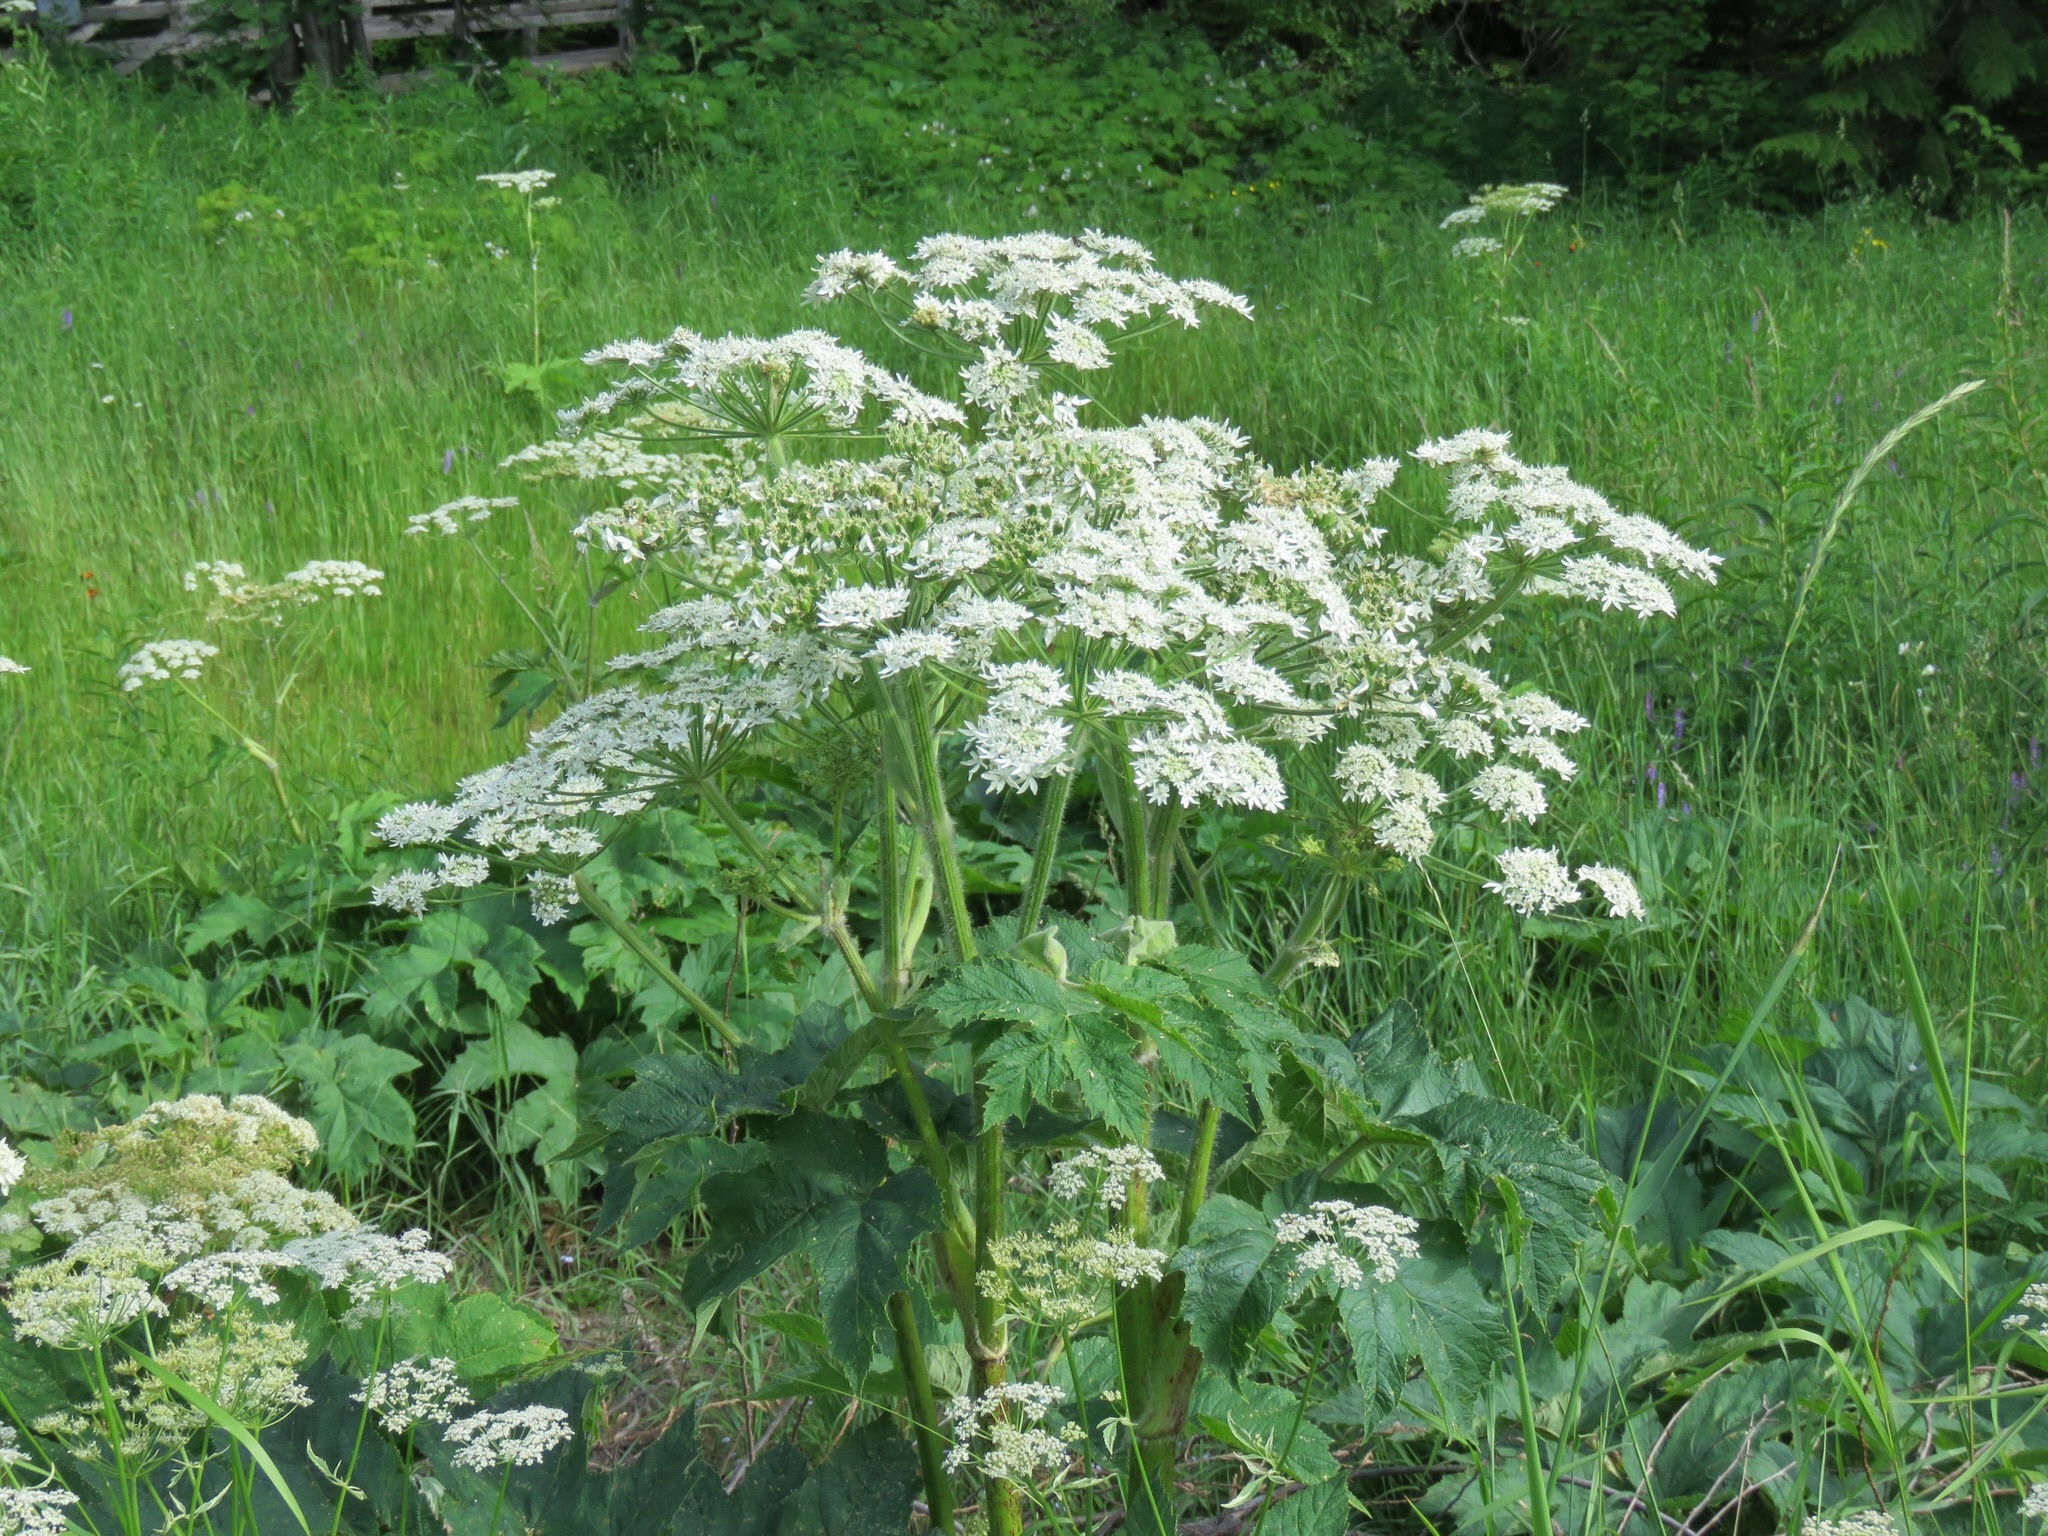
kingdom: Plantae
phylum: Tracheophyta
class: Magnoliopsida
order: Apiales
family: Apiaceae
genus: Heracleum
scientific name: Heracleum maximum
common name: American cow parsnip
